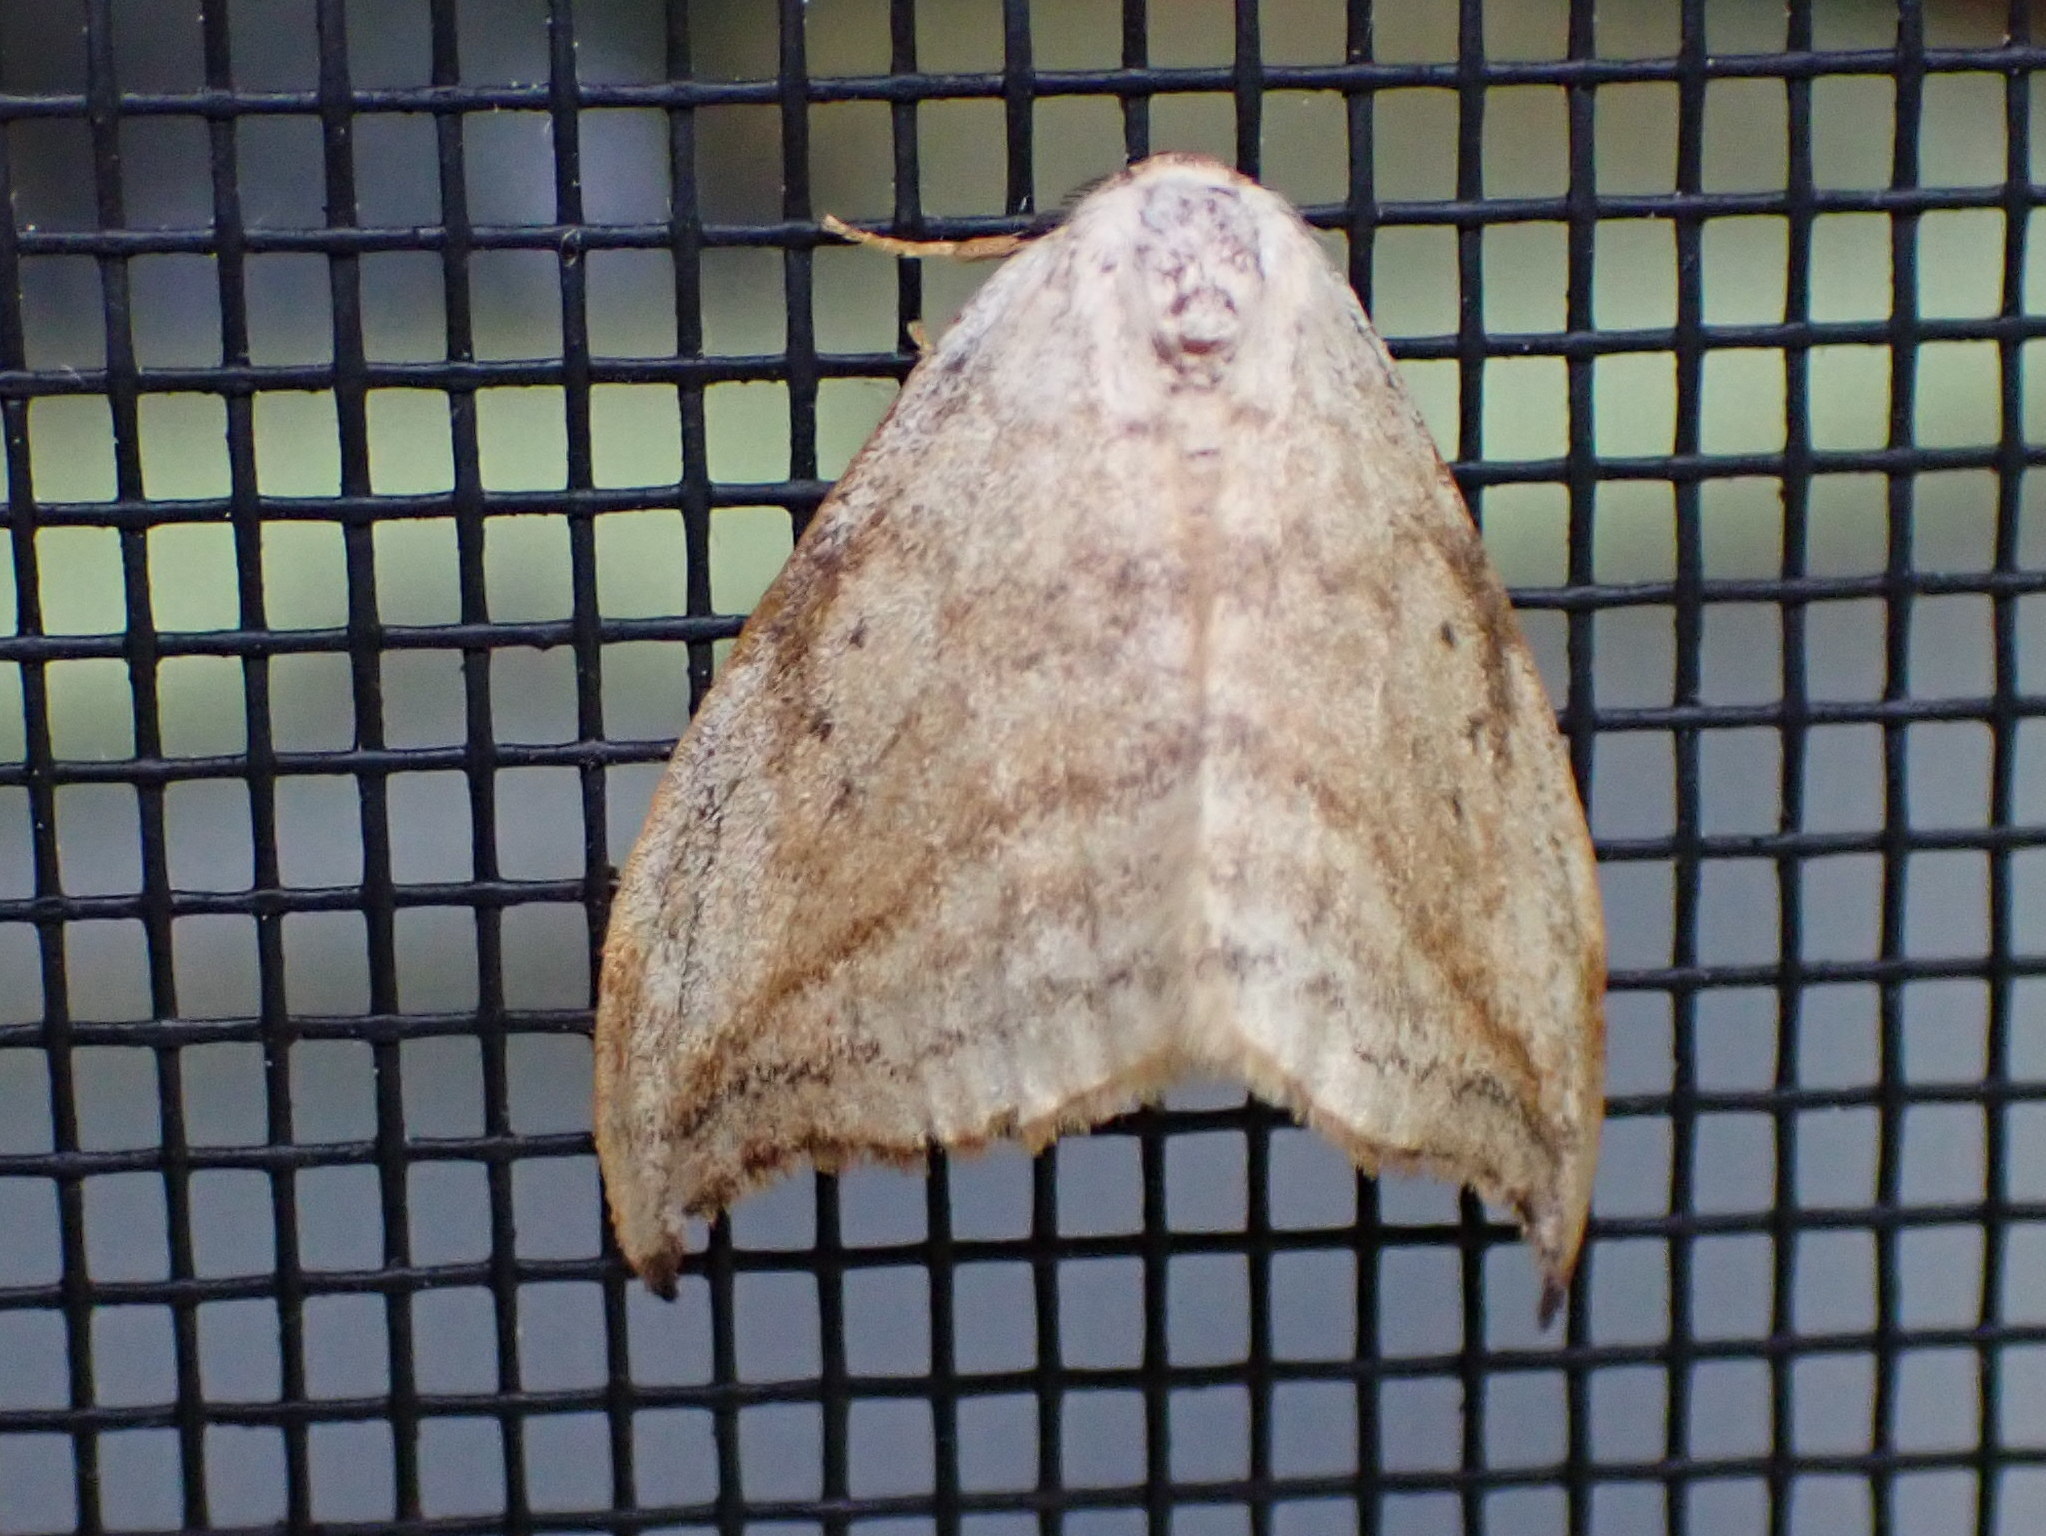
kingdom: Animalia
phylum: Arthropoda
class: Insecta
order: Lepidoptera
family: Drepanidae
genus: Drepana
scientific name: Drepana arcuata
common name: Arched hooktip moth
